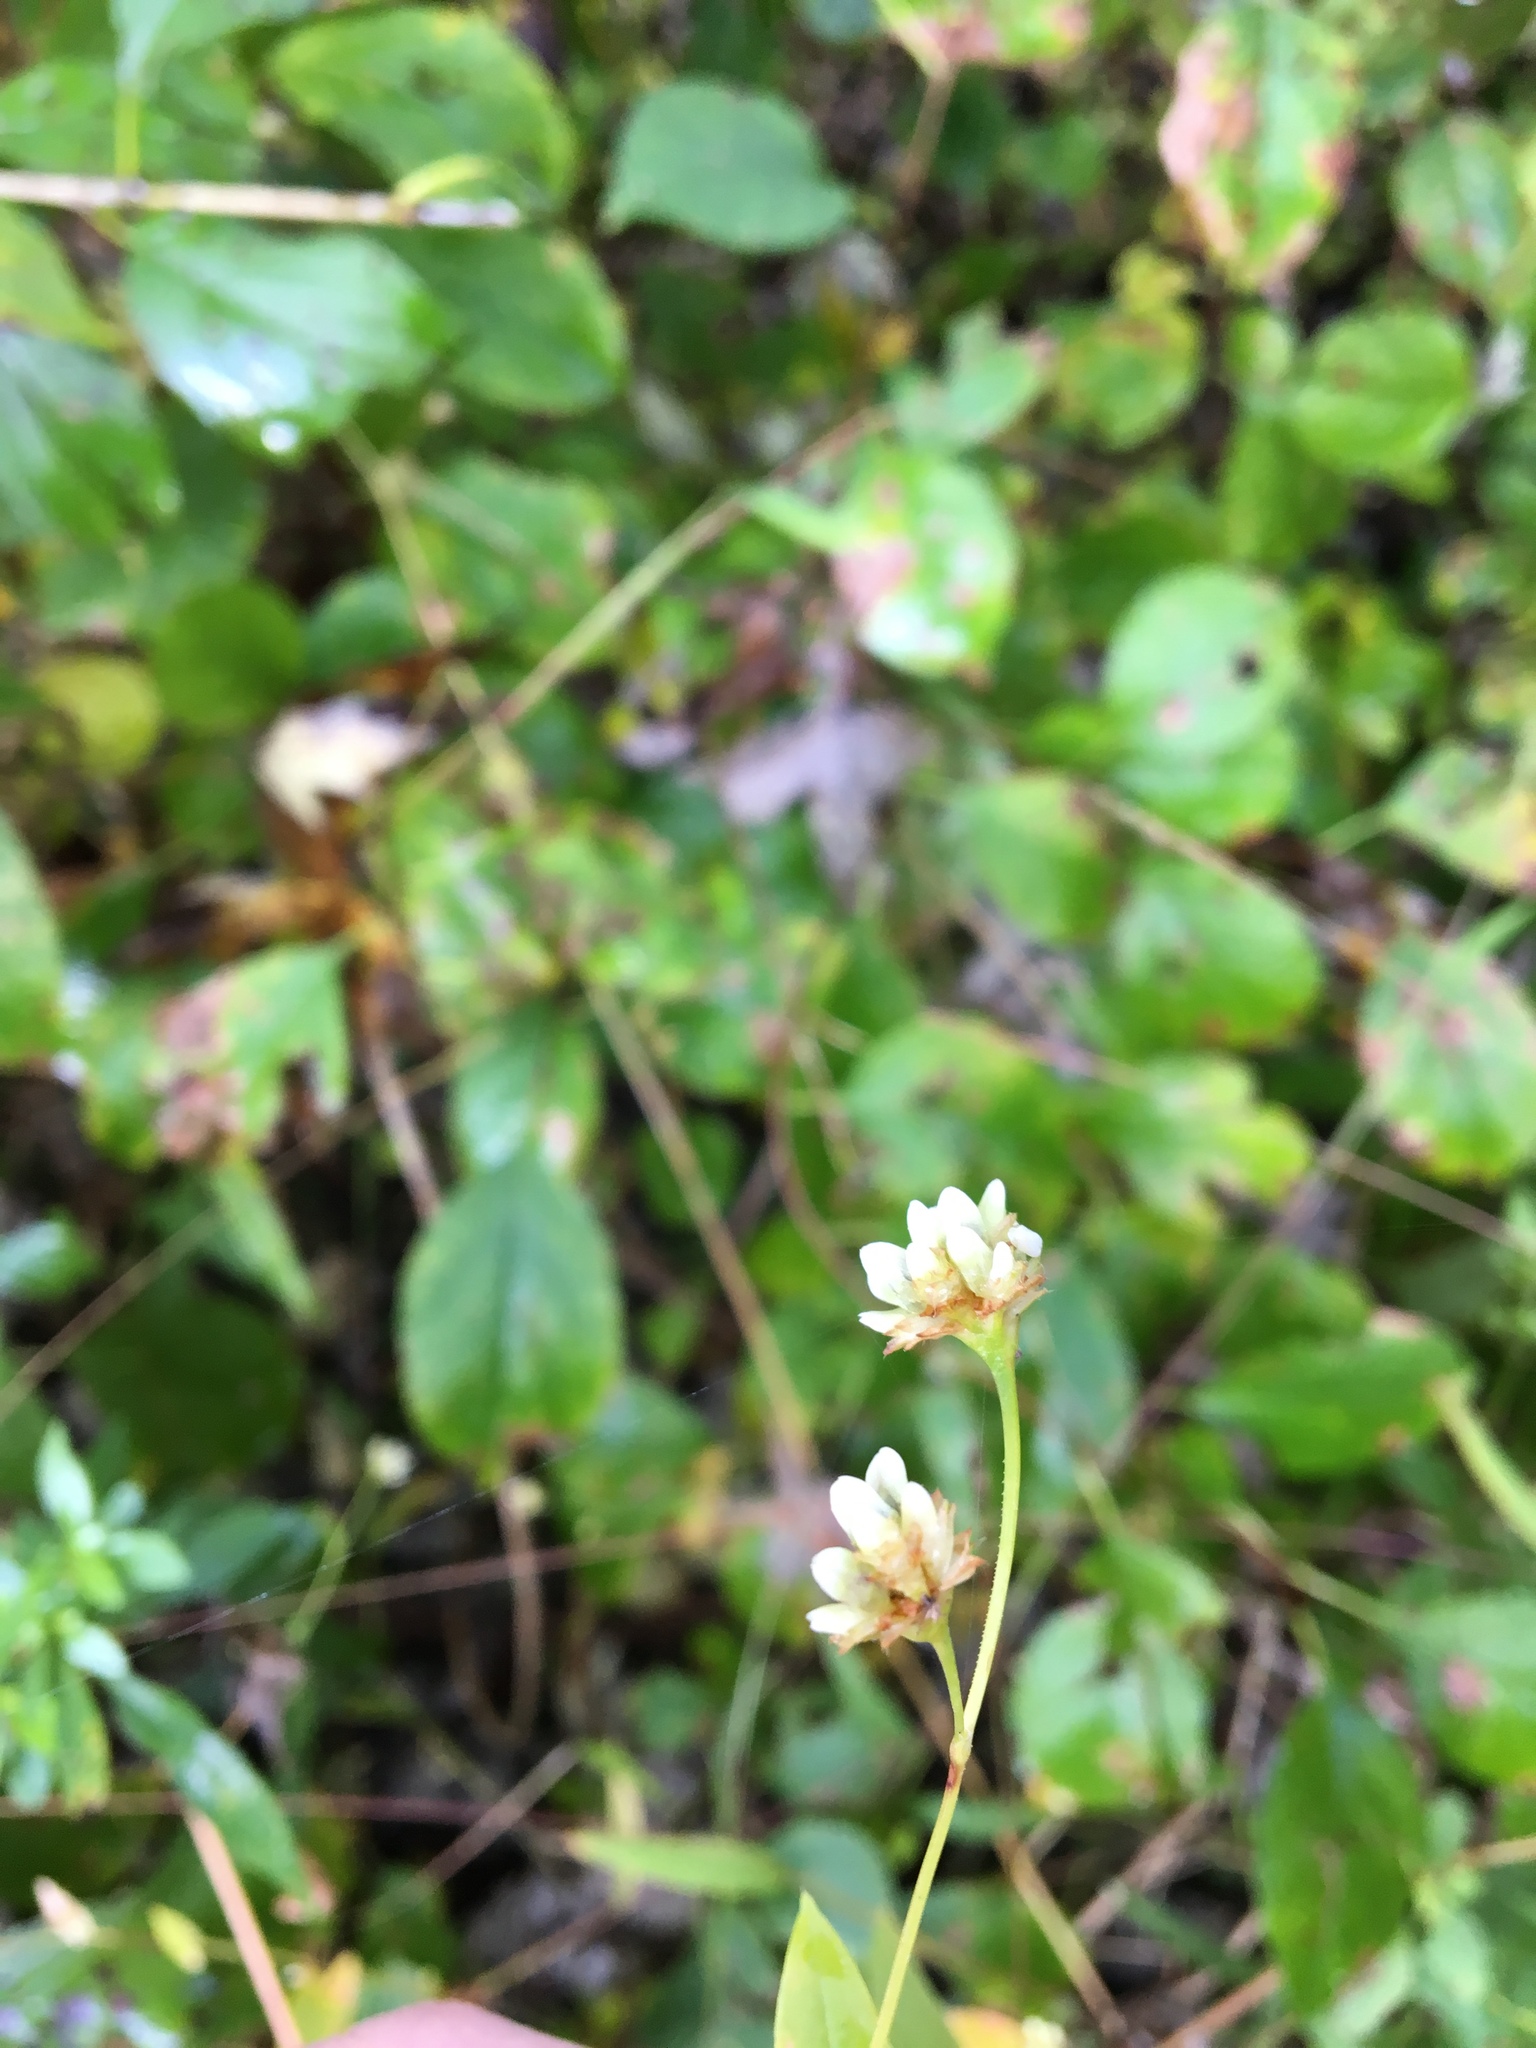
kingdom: Plantae
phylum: Tracheophyta
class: Magnoliopsida
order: Caryophyllales
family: Polygonaceae
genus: Persicaria
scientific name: Persicaria sagittata
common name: American tearthumb
